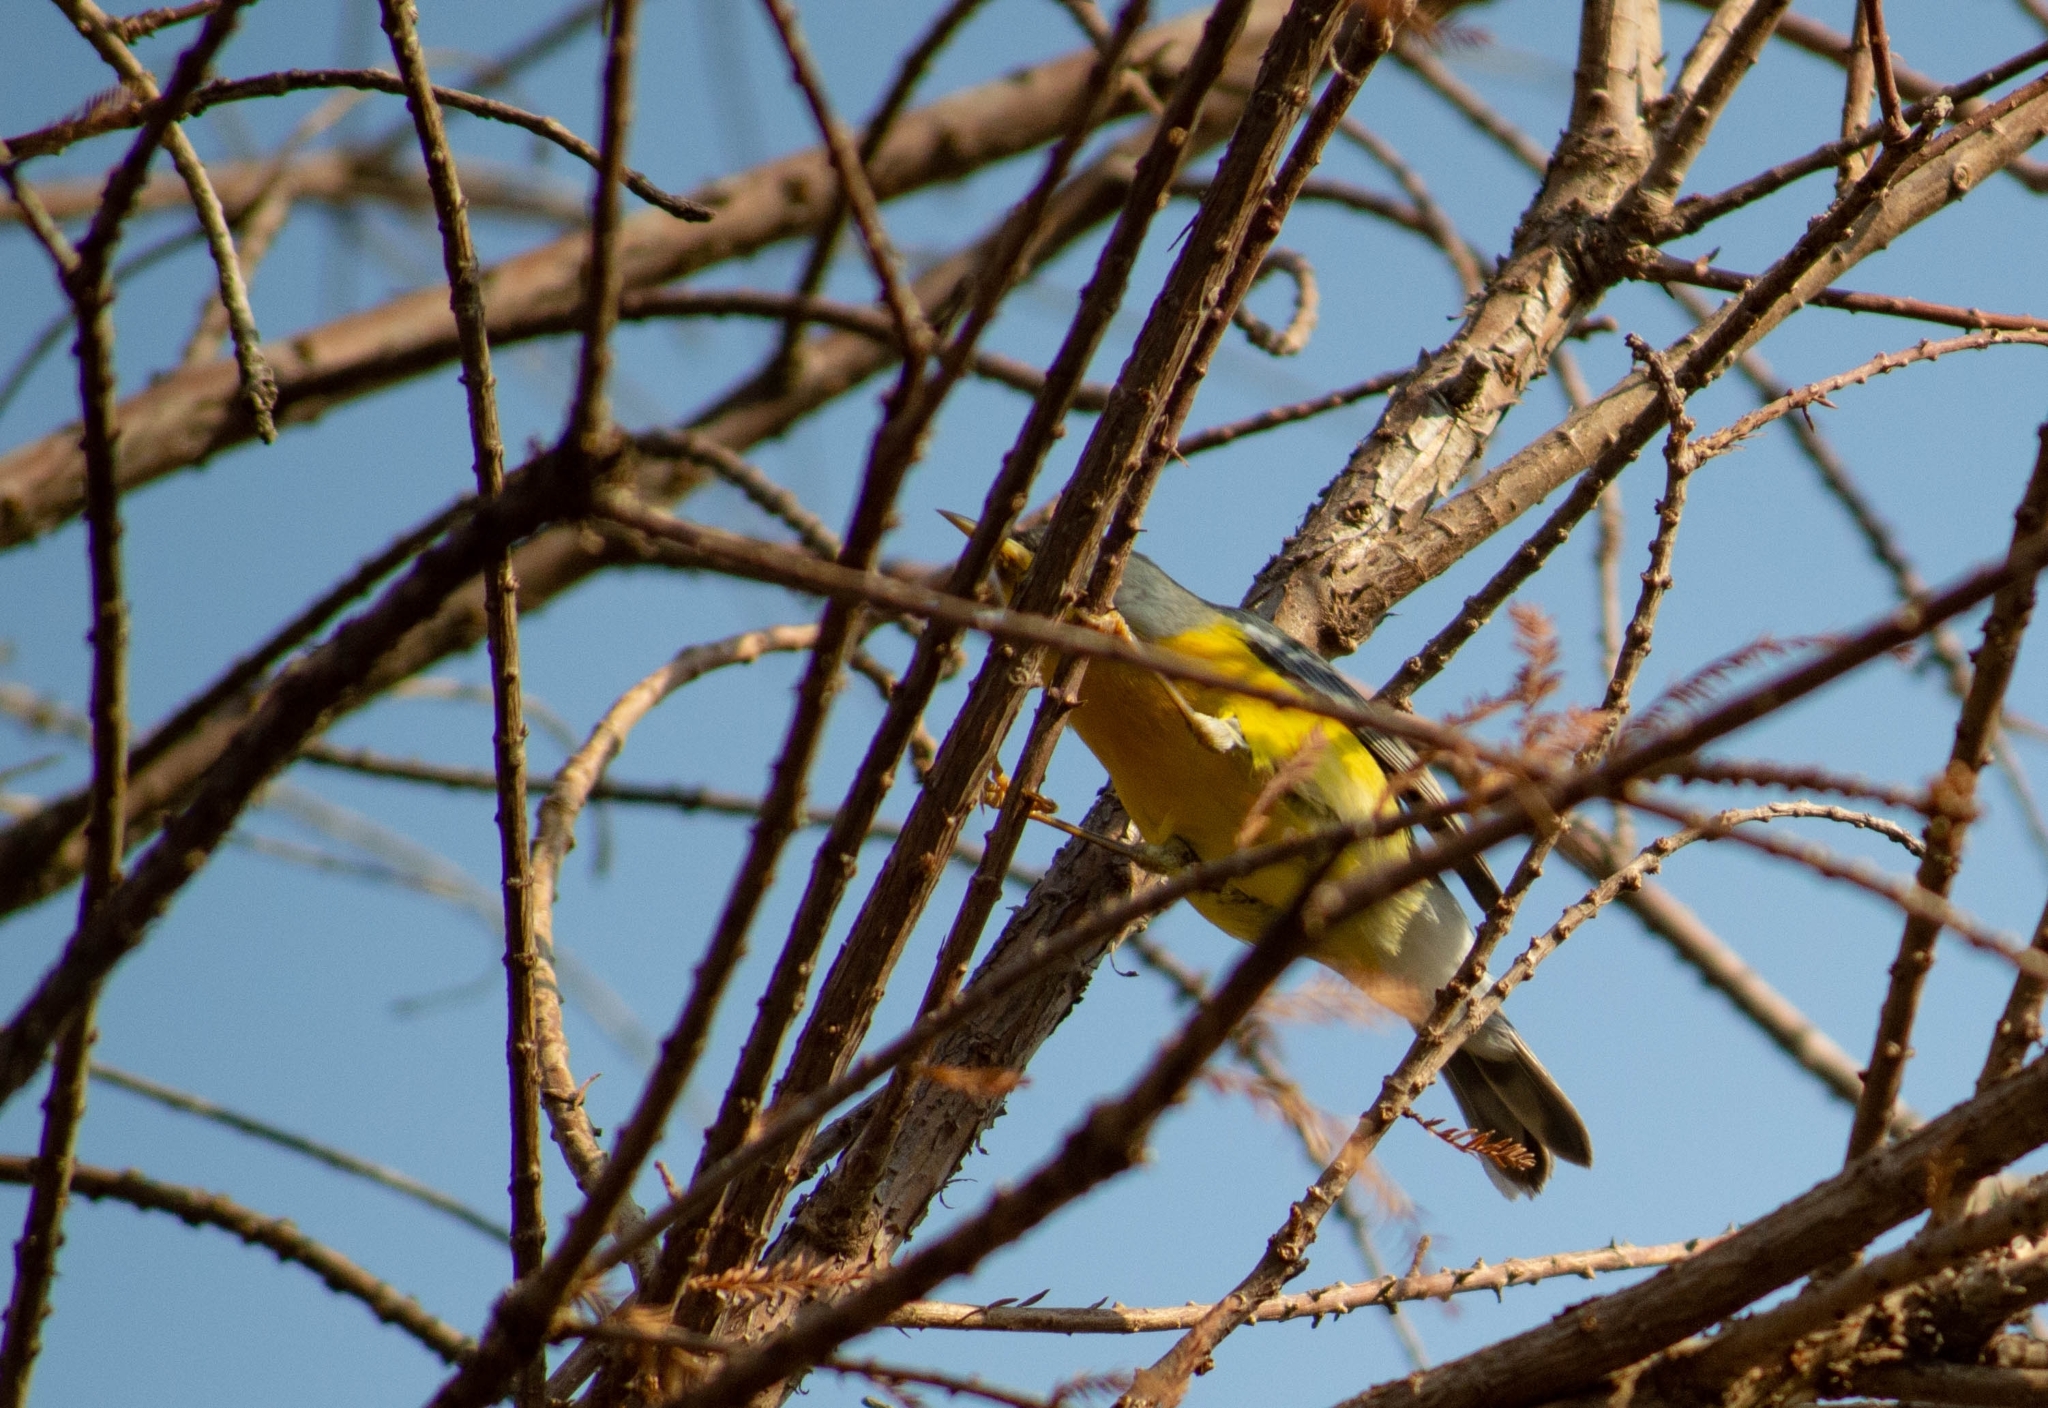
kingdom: Animalia
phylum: Chordata
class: Aves
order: Passeriformes
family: Parulidae
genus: Setophaga
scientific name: Setophaga pitiayumi
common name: Tropical parula
